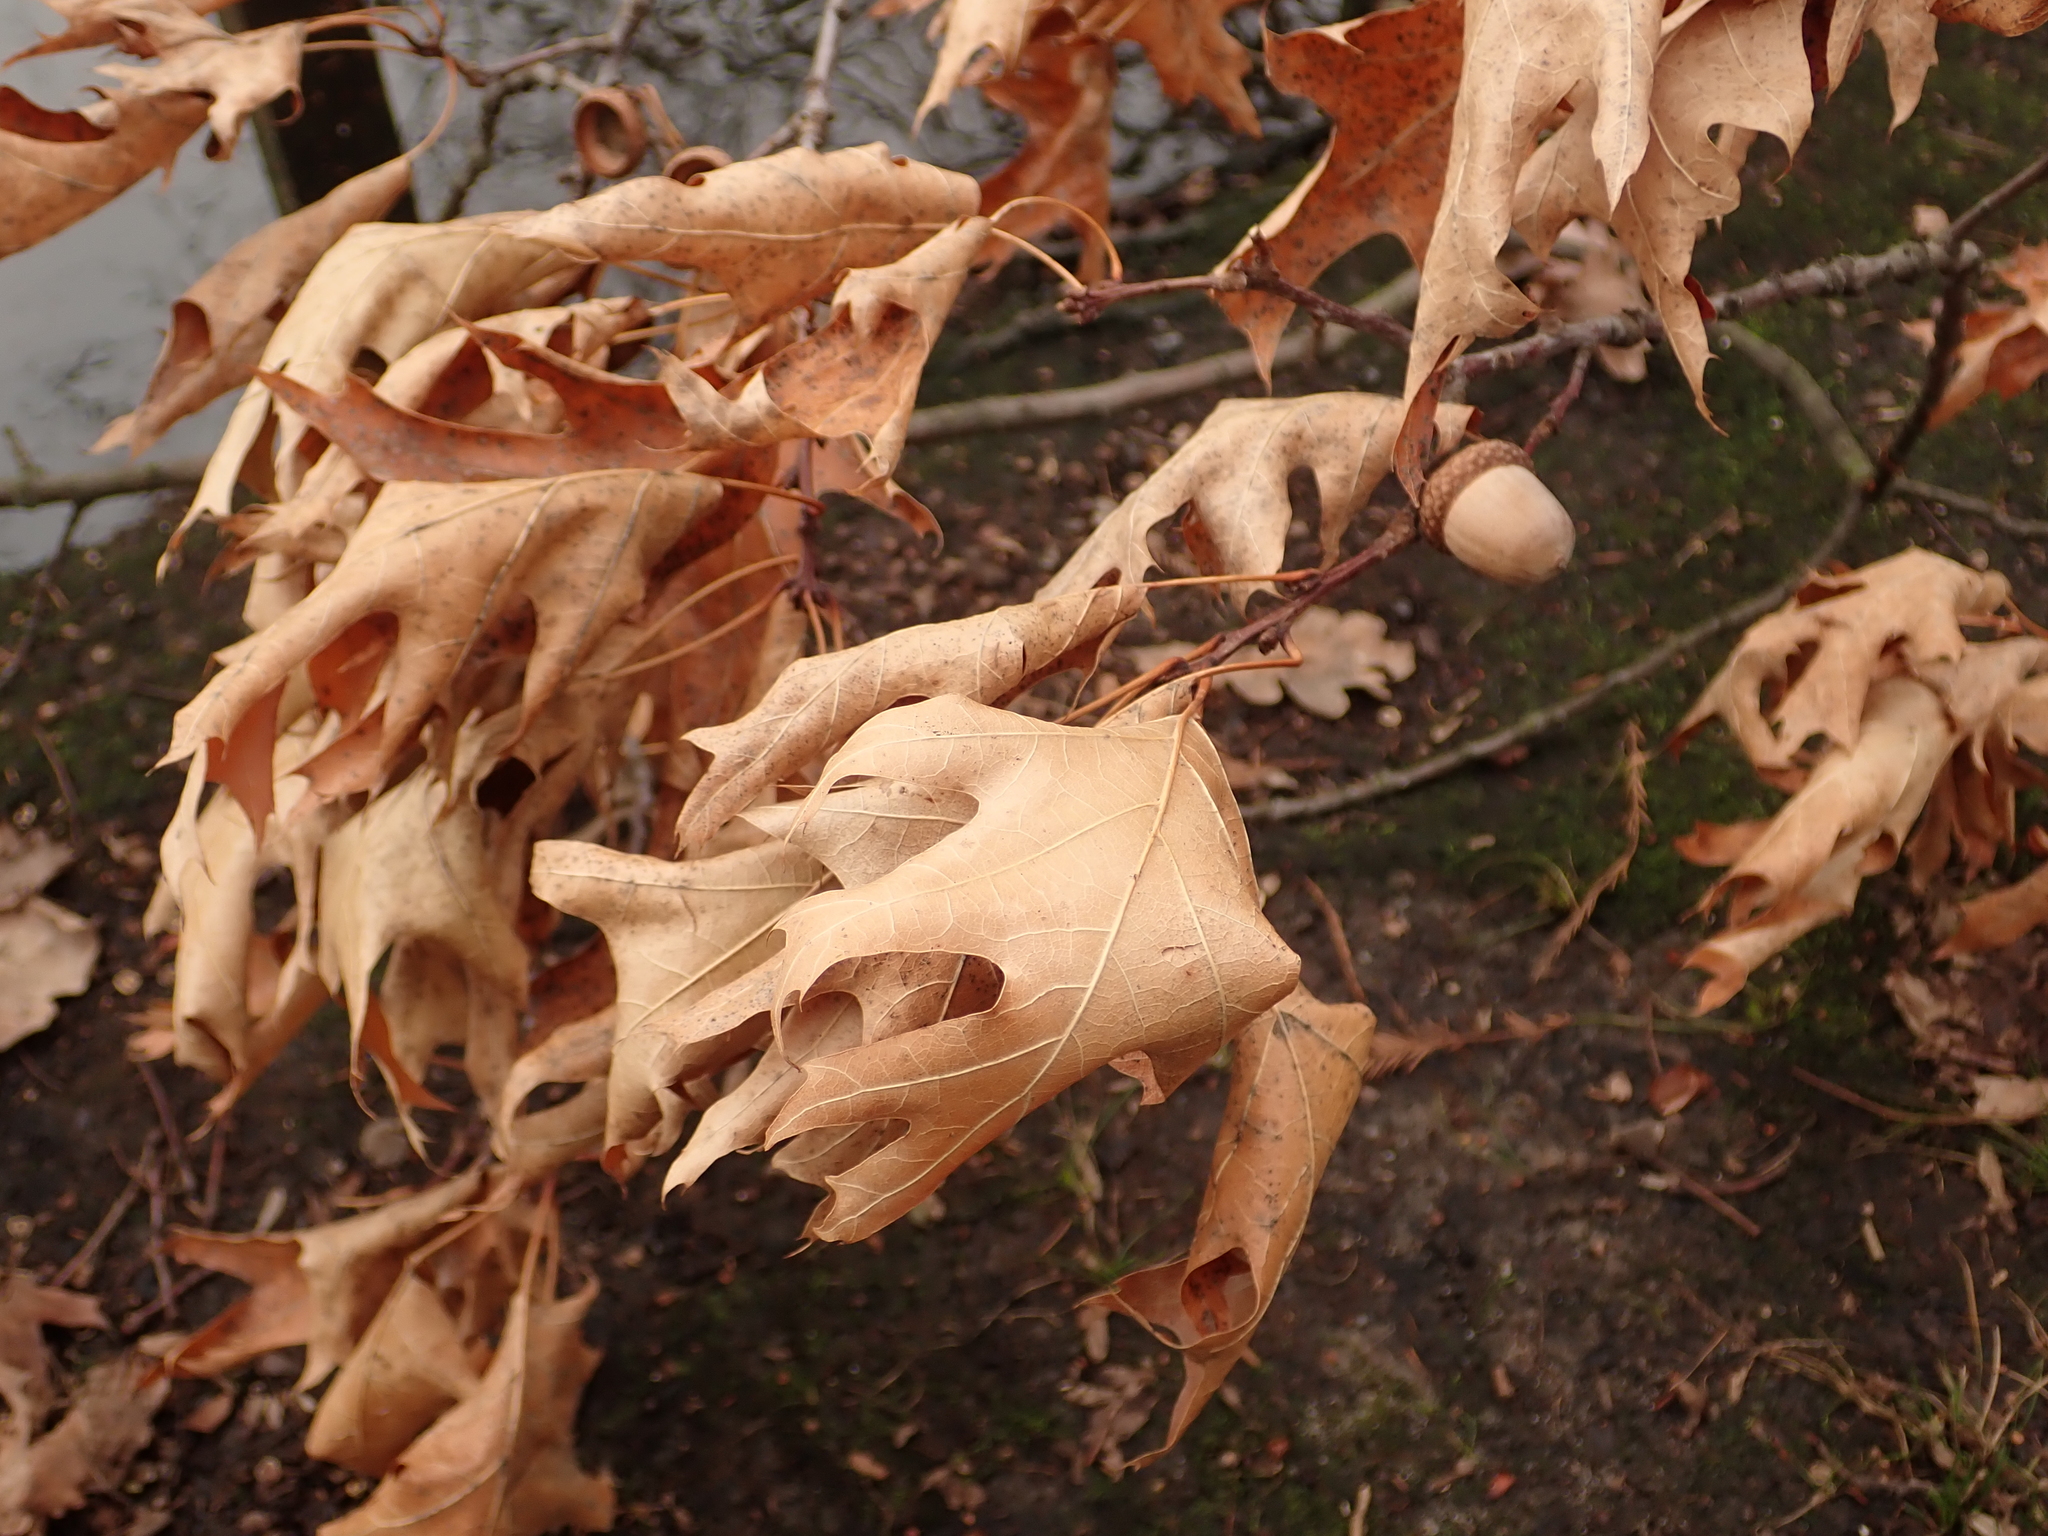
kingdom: Plantae
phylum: Tracheophyta
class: Magnoliopsida
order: Fagales
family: Fagaceae
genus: Quercus
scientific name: Quercus rubra
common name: Red oak
